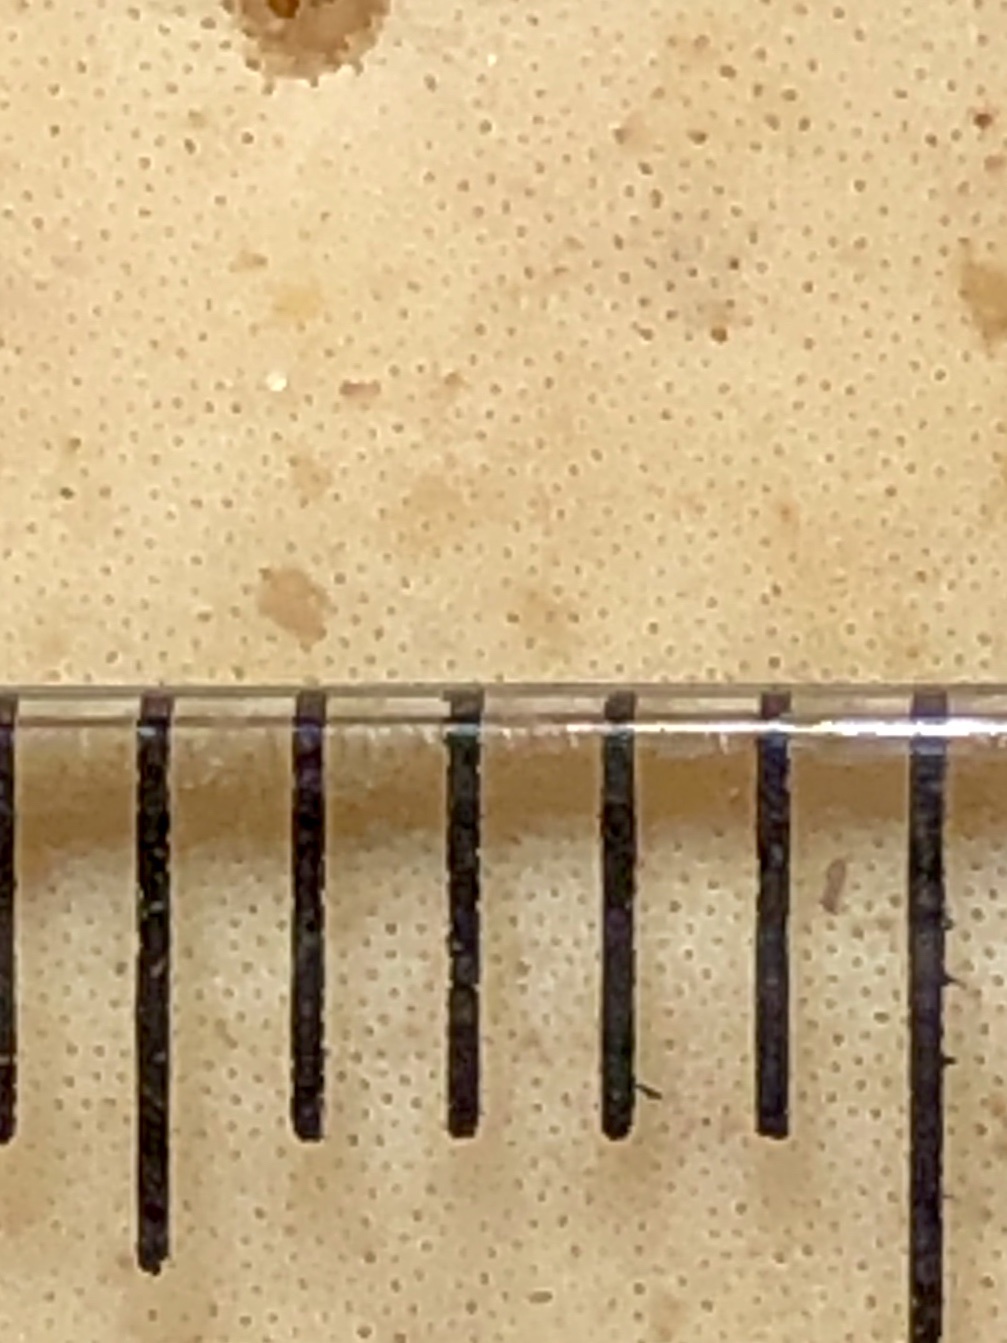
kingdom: Fungi
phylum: Basidiomycota
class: Agaricomycetes
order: Polyporales
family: Polyporaceae
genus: Microporellus
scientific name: Microporellus dealbatus
